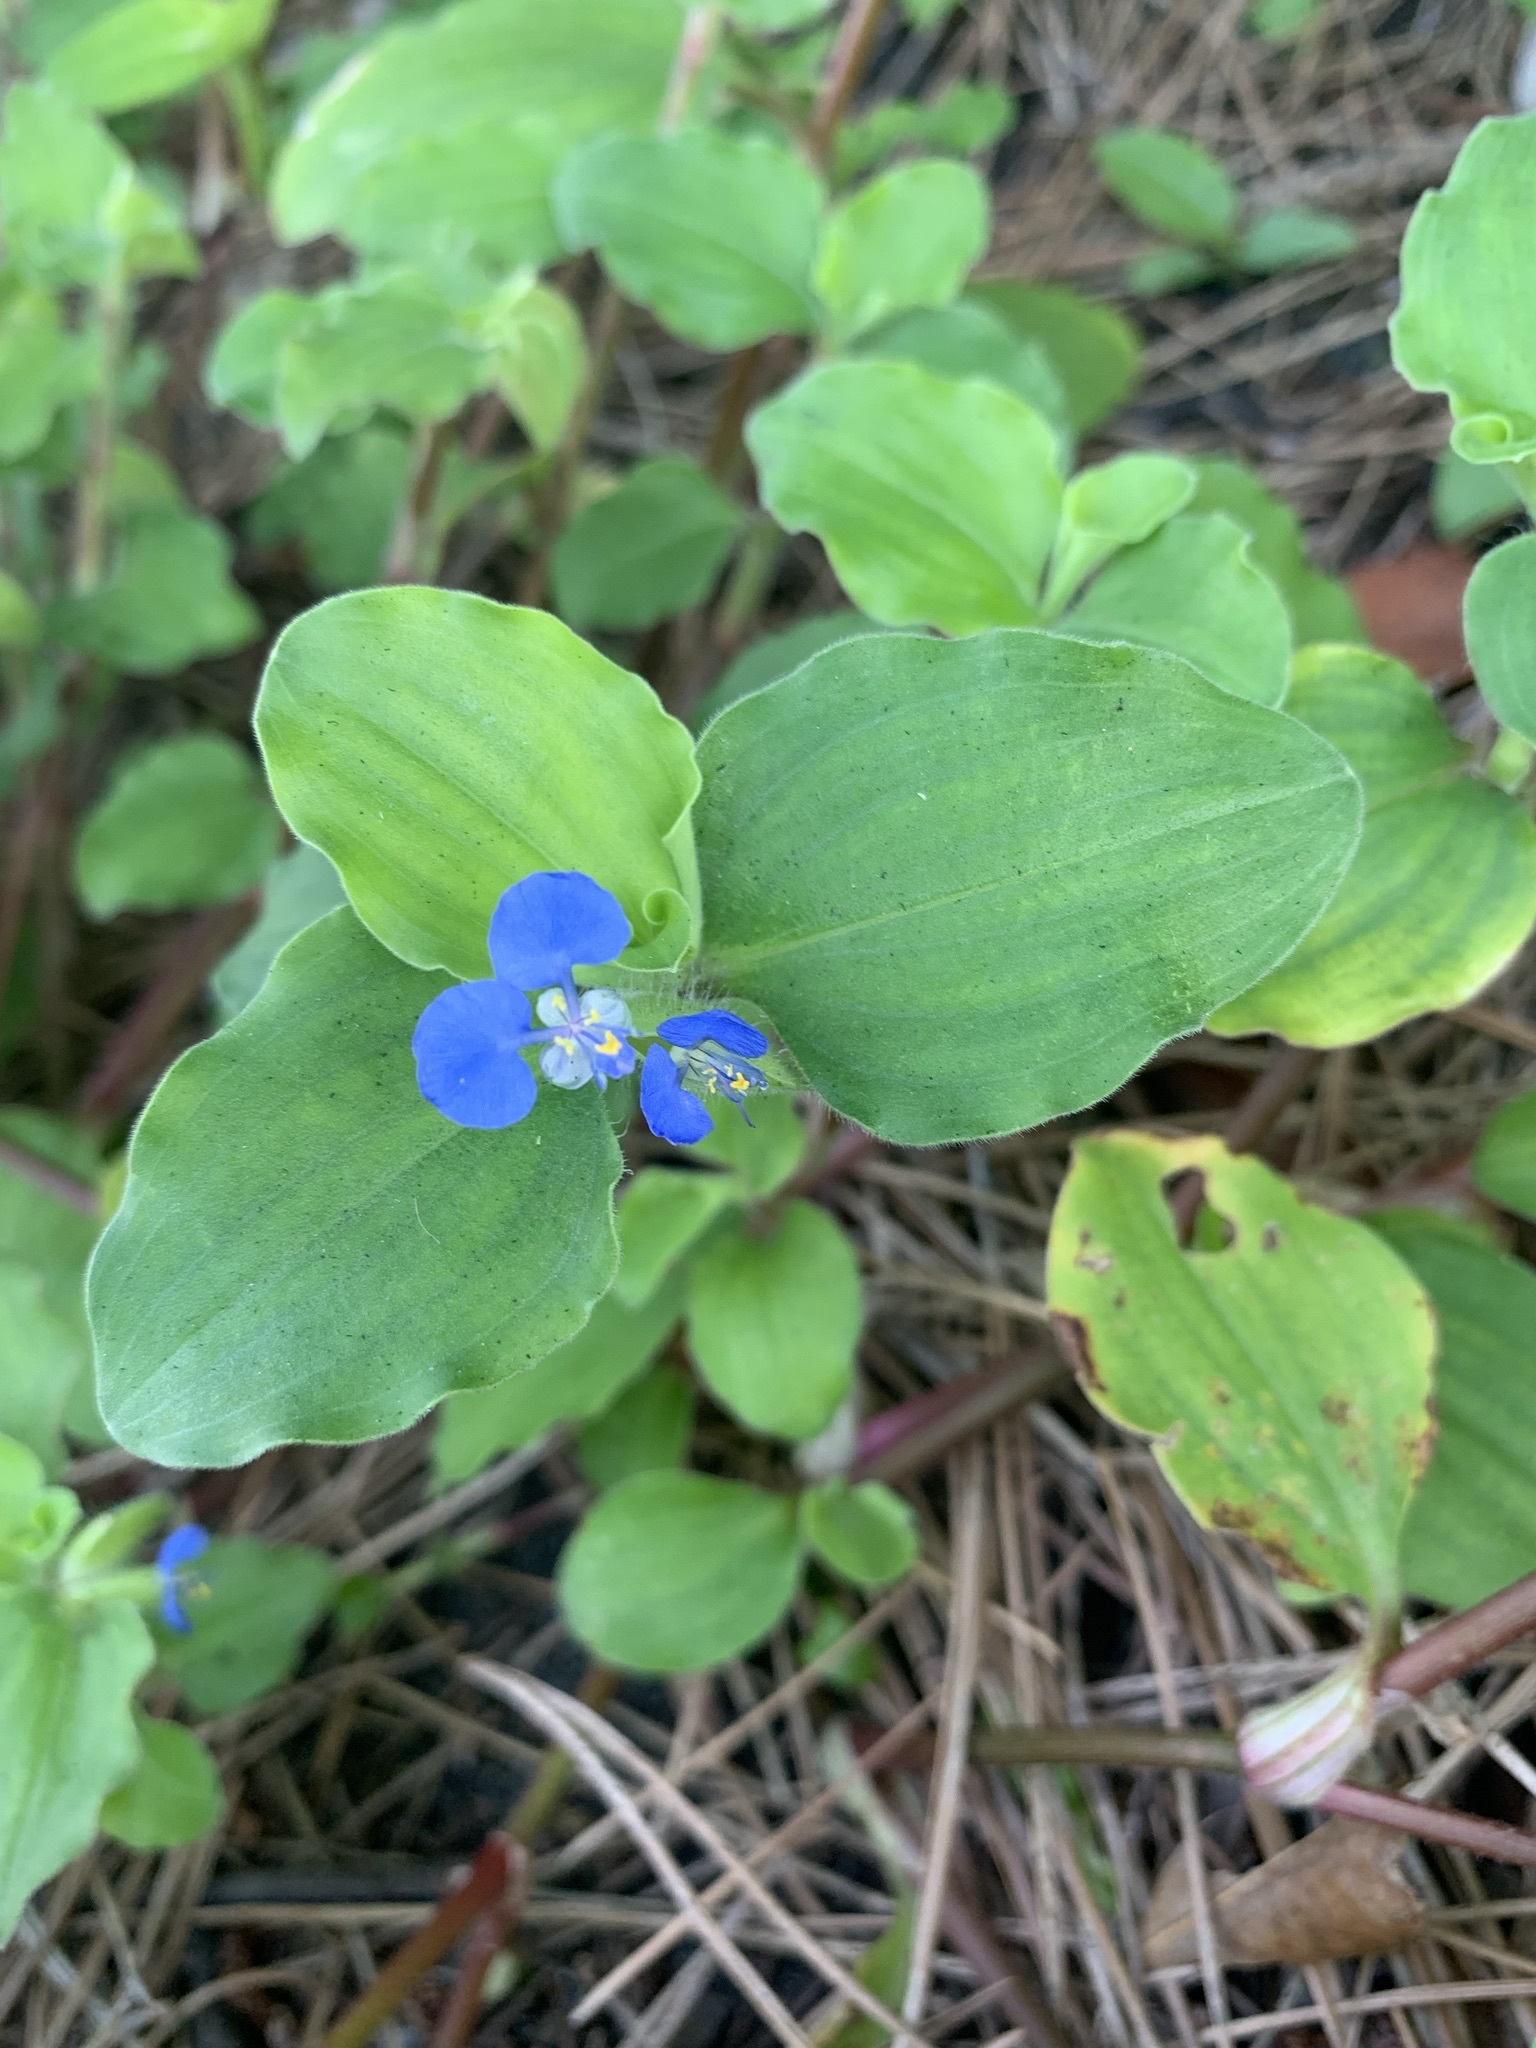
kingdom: Plantae
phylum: Tracheophyta
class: Liliopsida
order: Commelinales
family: Commelinaceae
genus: Commelina
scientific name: Commelina benghalensis
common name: Jio
